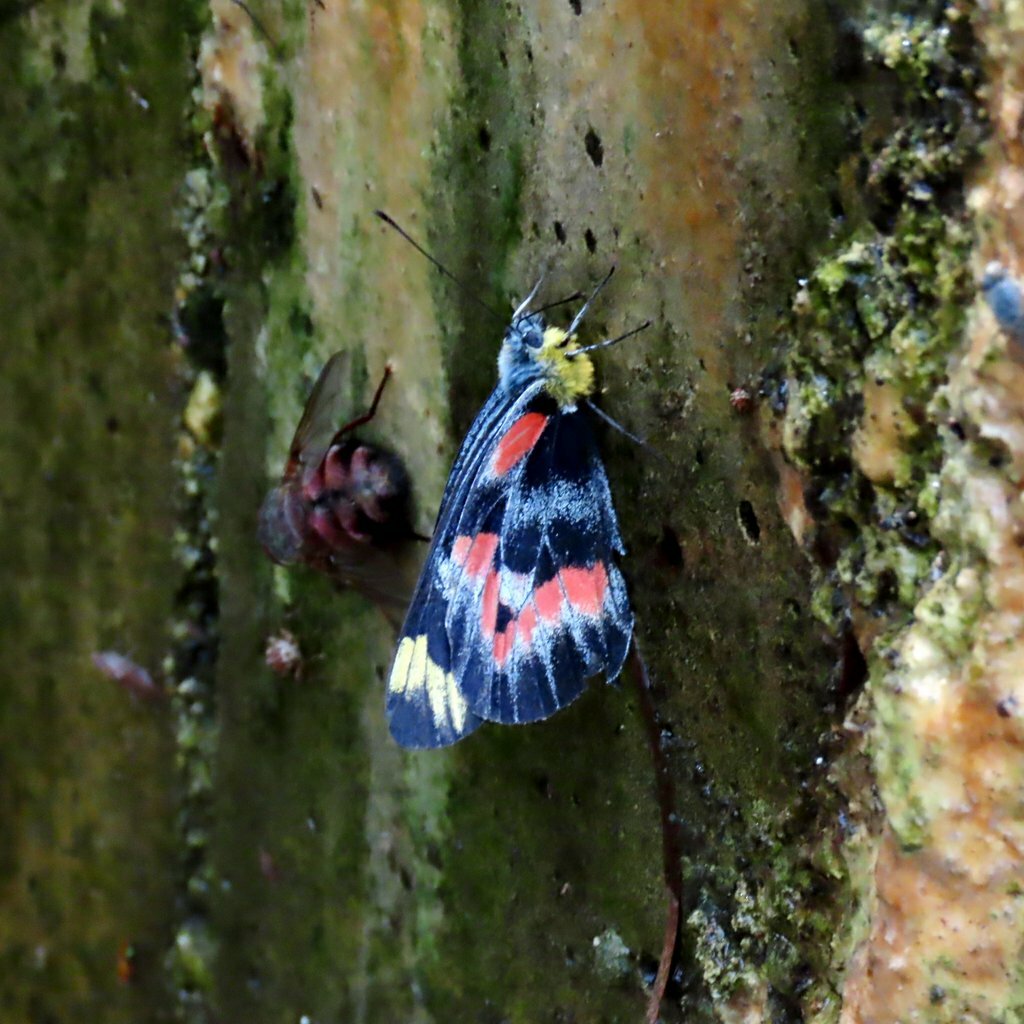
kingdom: Animalia
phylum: Arthropoda
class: Insecta
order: Lepidoptera
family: Pieridae
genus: Delias
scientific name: Delias harpalyce
